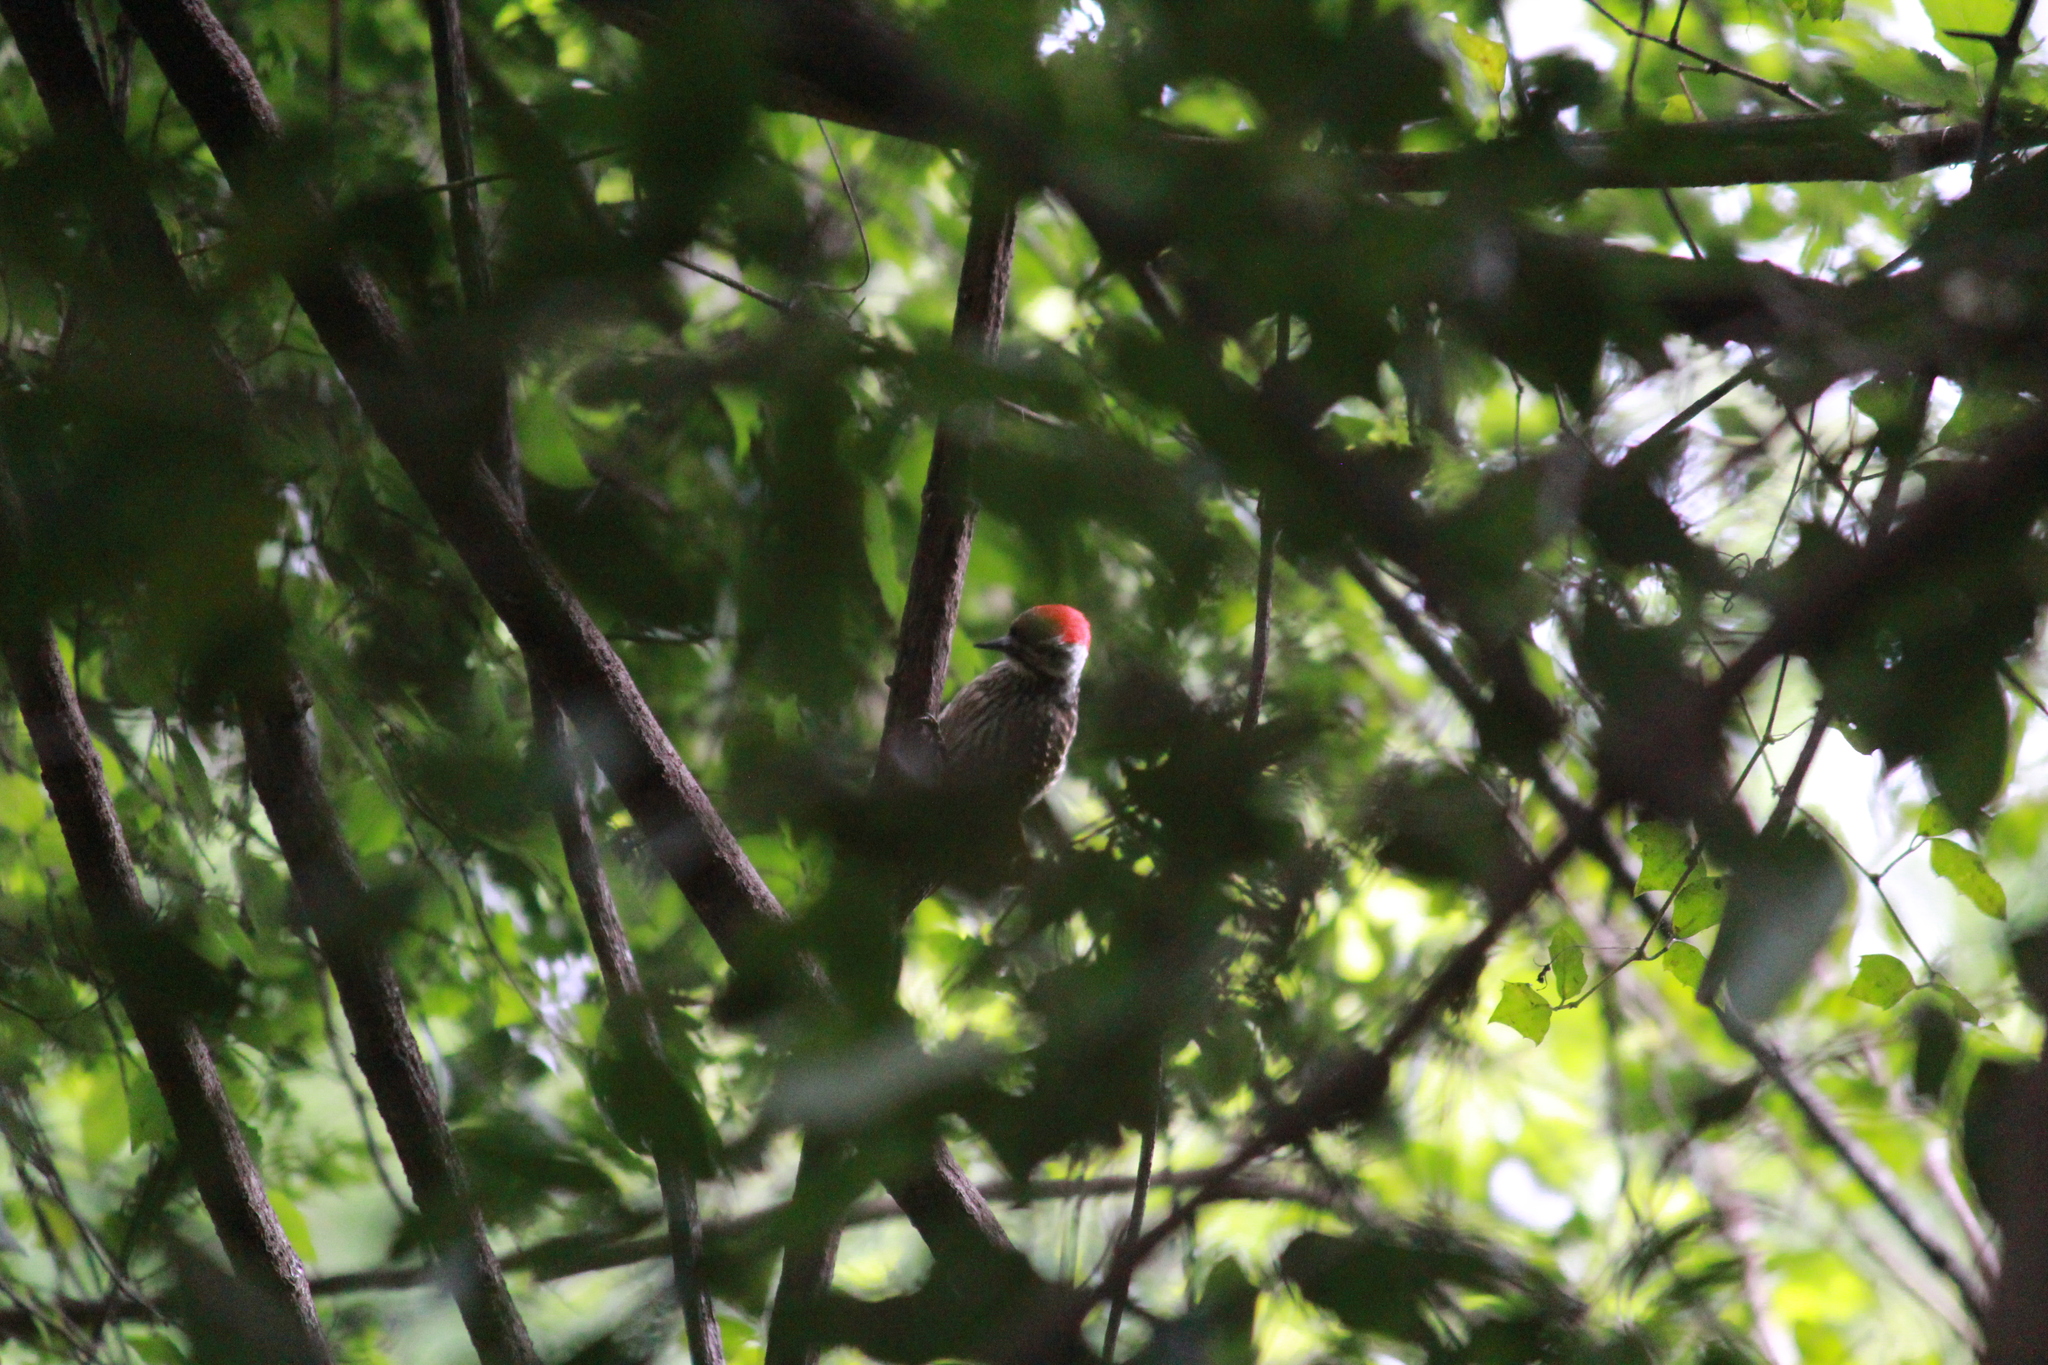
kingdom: Animalia
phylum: Chordata
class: Aves
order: Piciformes
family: Picidae
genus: Dendropicos
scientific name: Dendropicos fuscescens
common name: Cardinal woodpecker
